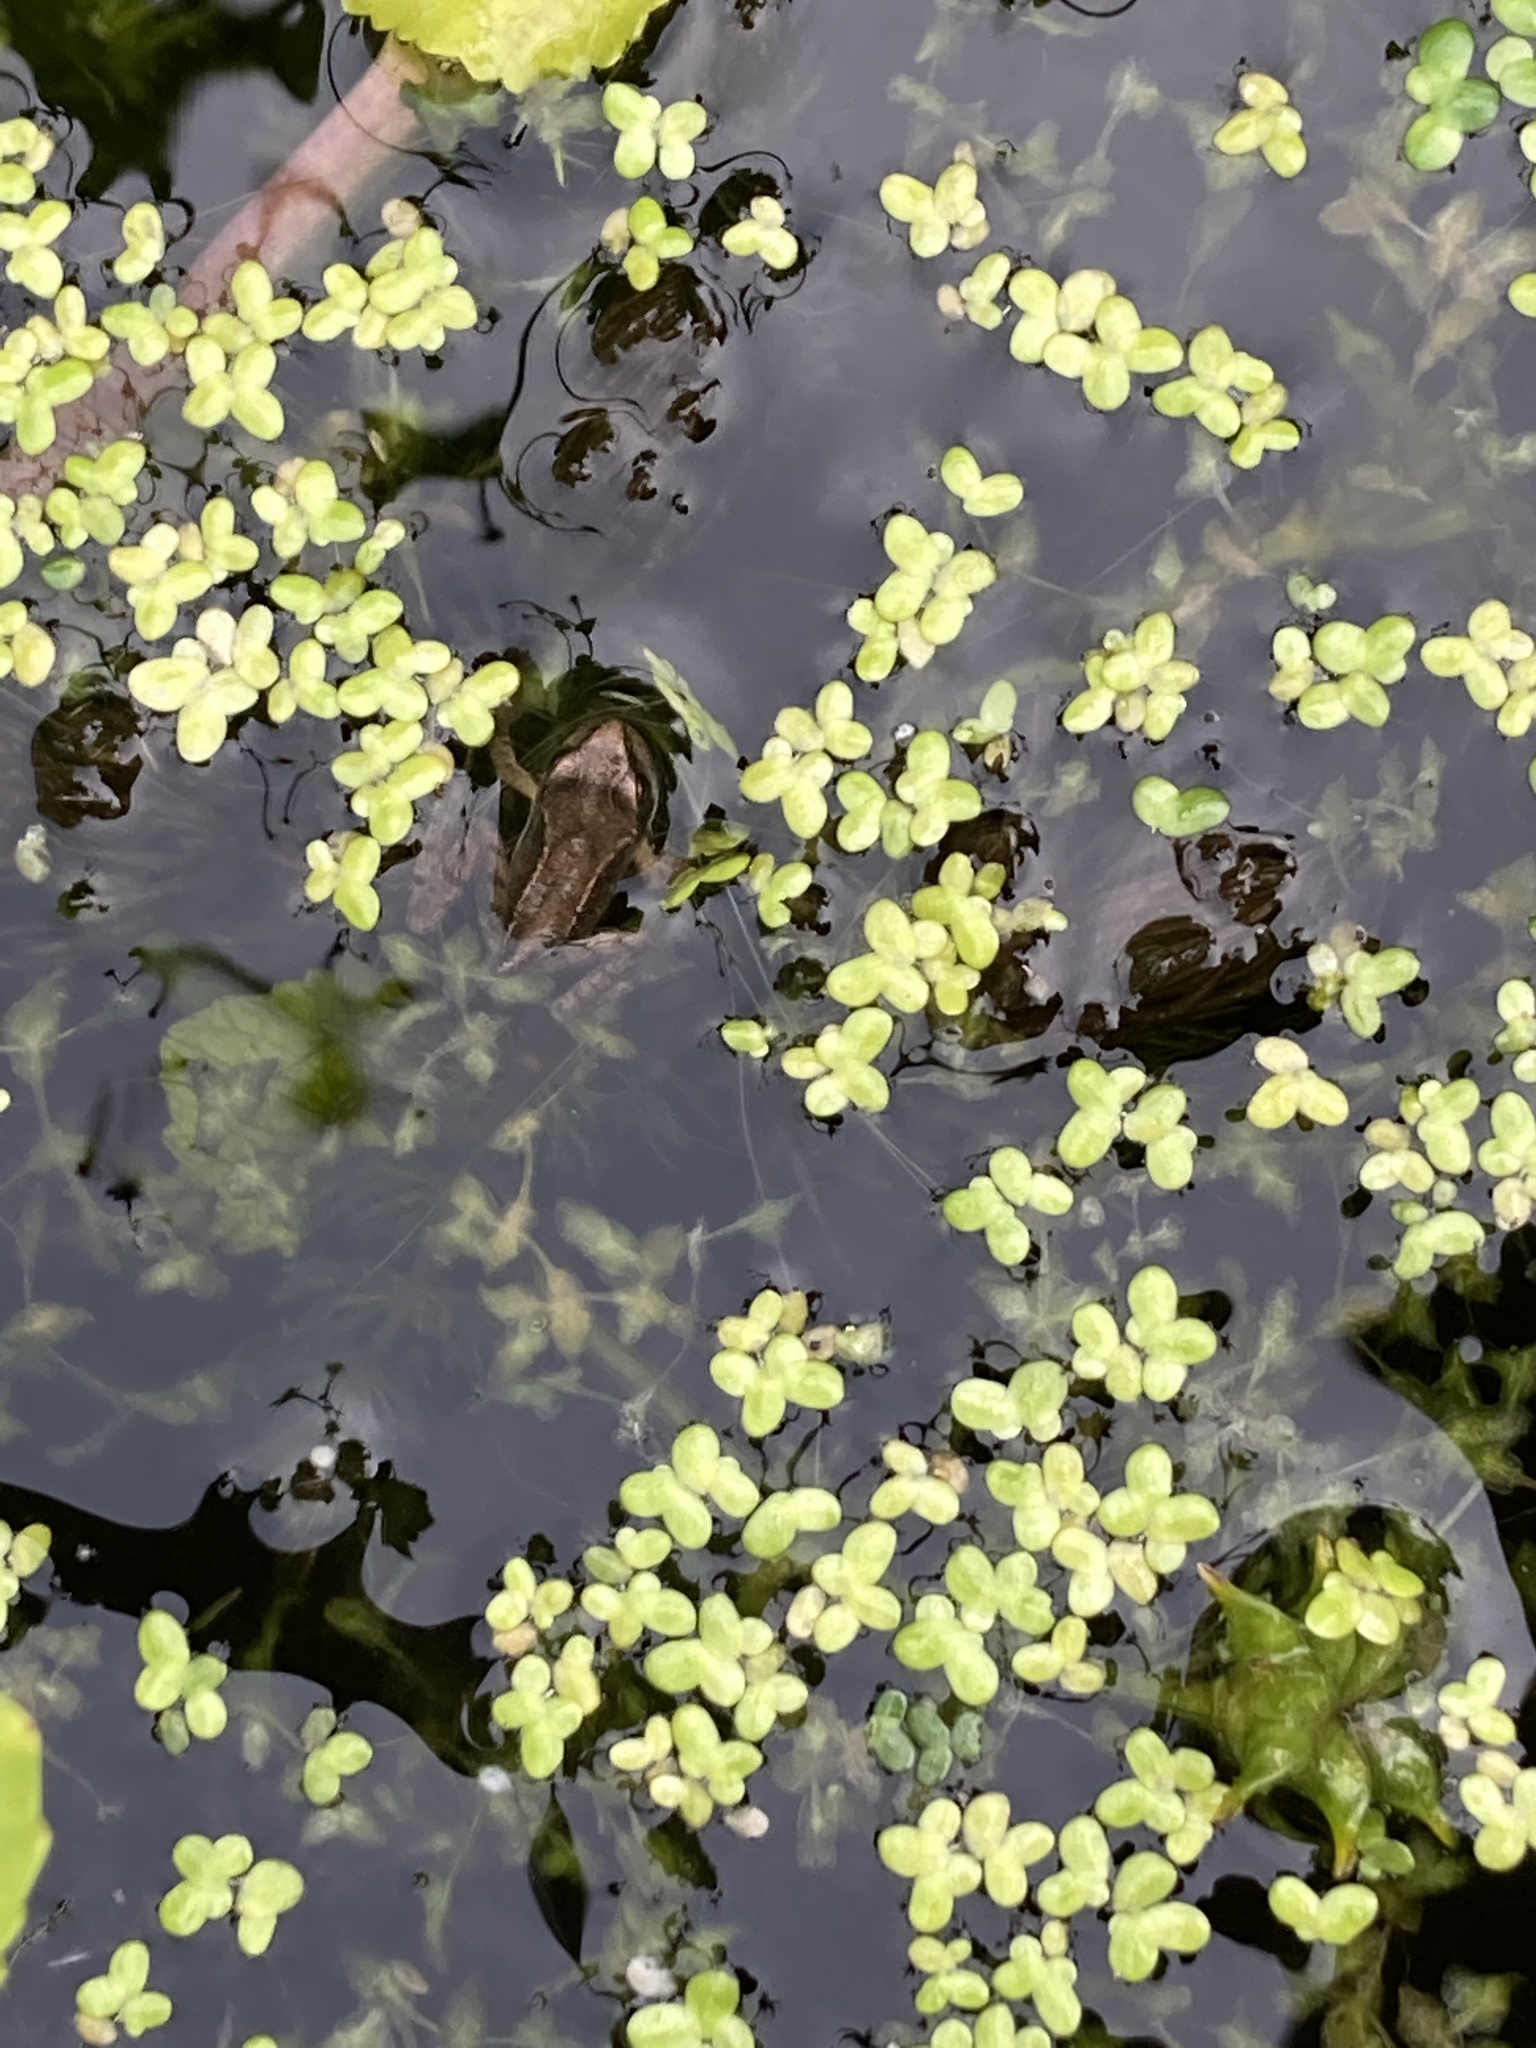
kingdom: Animalia
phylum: Chordata
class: Amphibia
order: Anura
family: Ranidae
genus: Rana
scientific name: Rana temporaria
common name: Common frog
